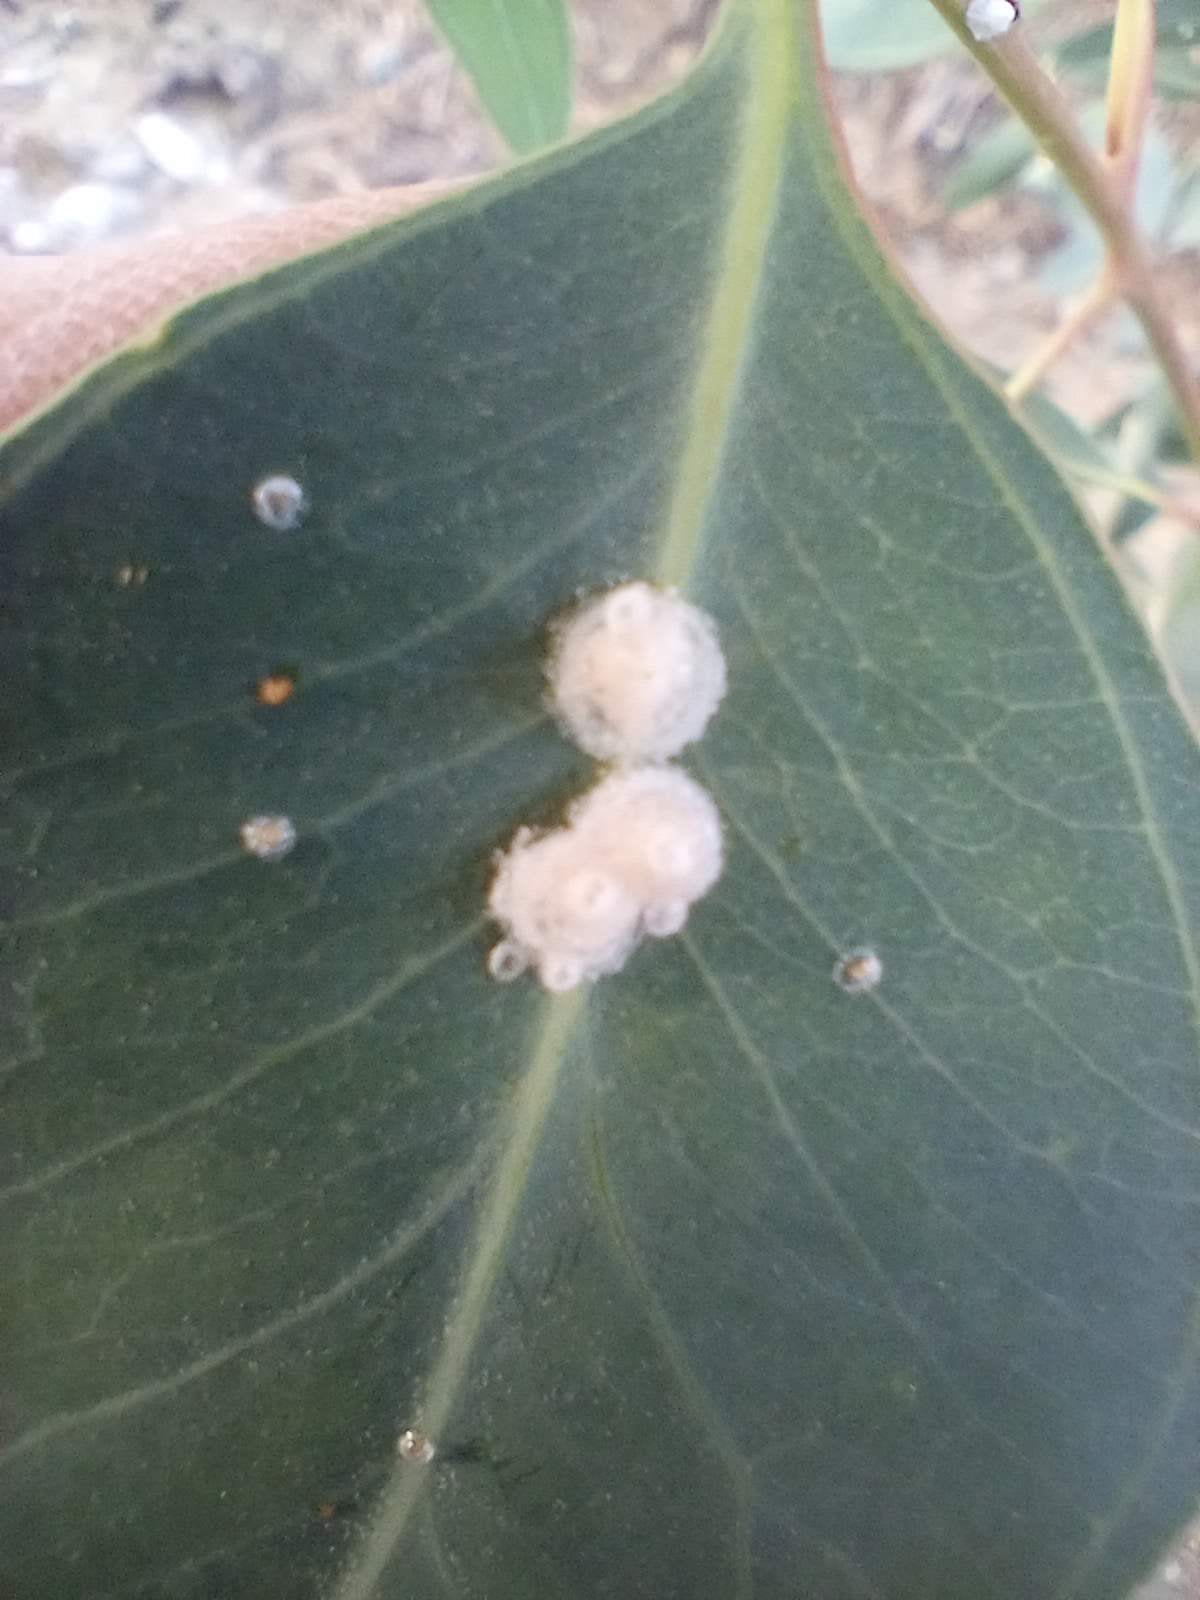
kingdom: Animalia
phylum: Arthropoda
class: Insecta
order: Hemiptera
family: Aphalaridae
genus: Glycaspis
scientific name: Glycaspis brimblecombei
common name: Red gum lerp psyllid
